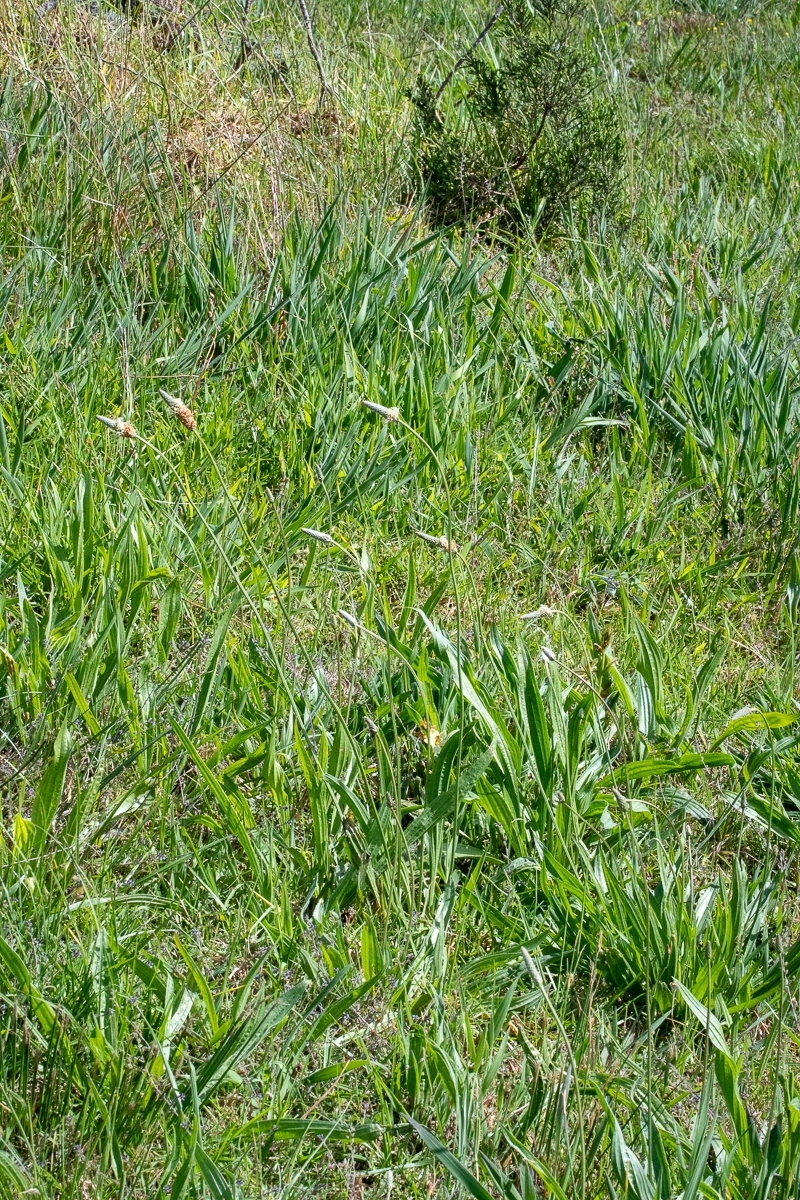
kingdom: Plantae
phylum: Tracheophyta
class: Magnoliopsida
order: Lamiales
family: Plantaginaceae
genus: Plantago
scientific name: Plantago lanceolata
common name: Ribwort plantain
